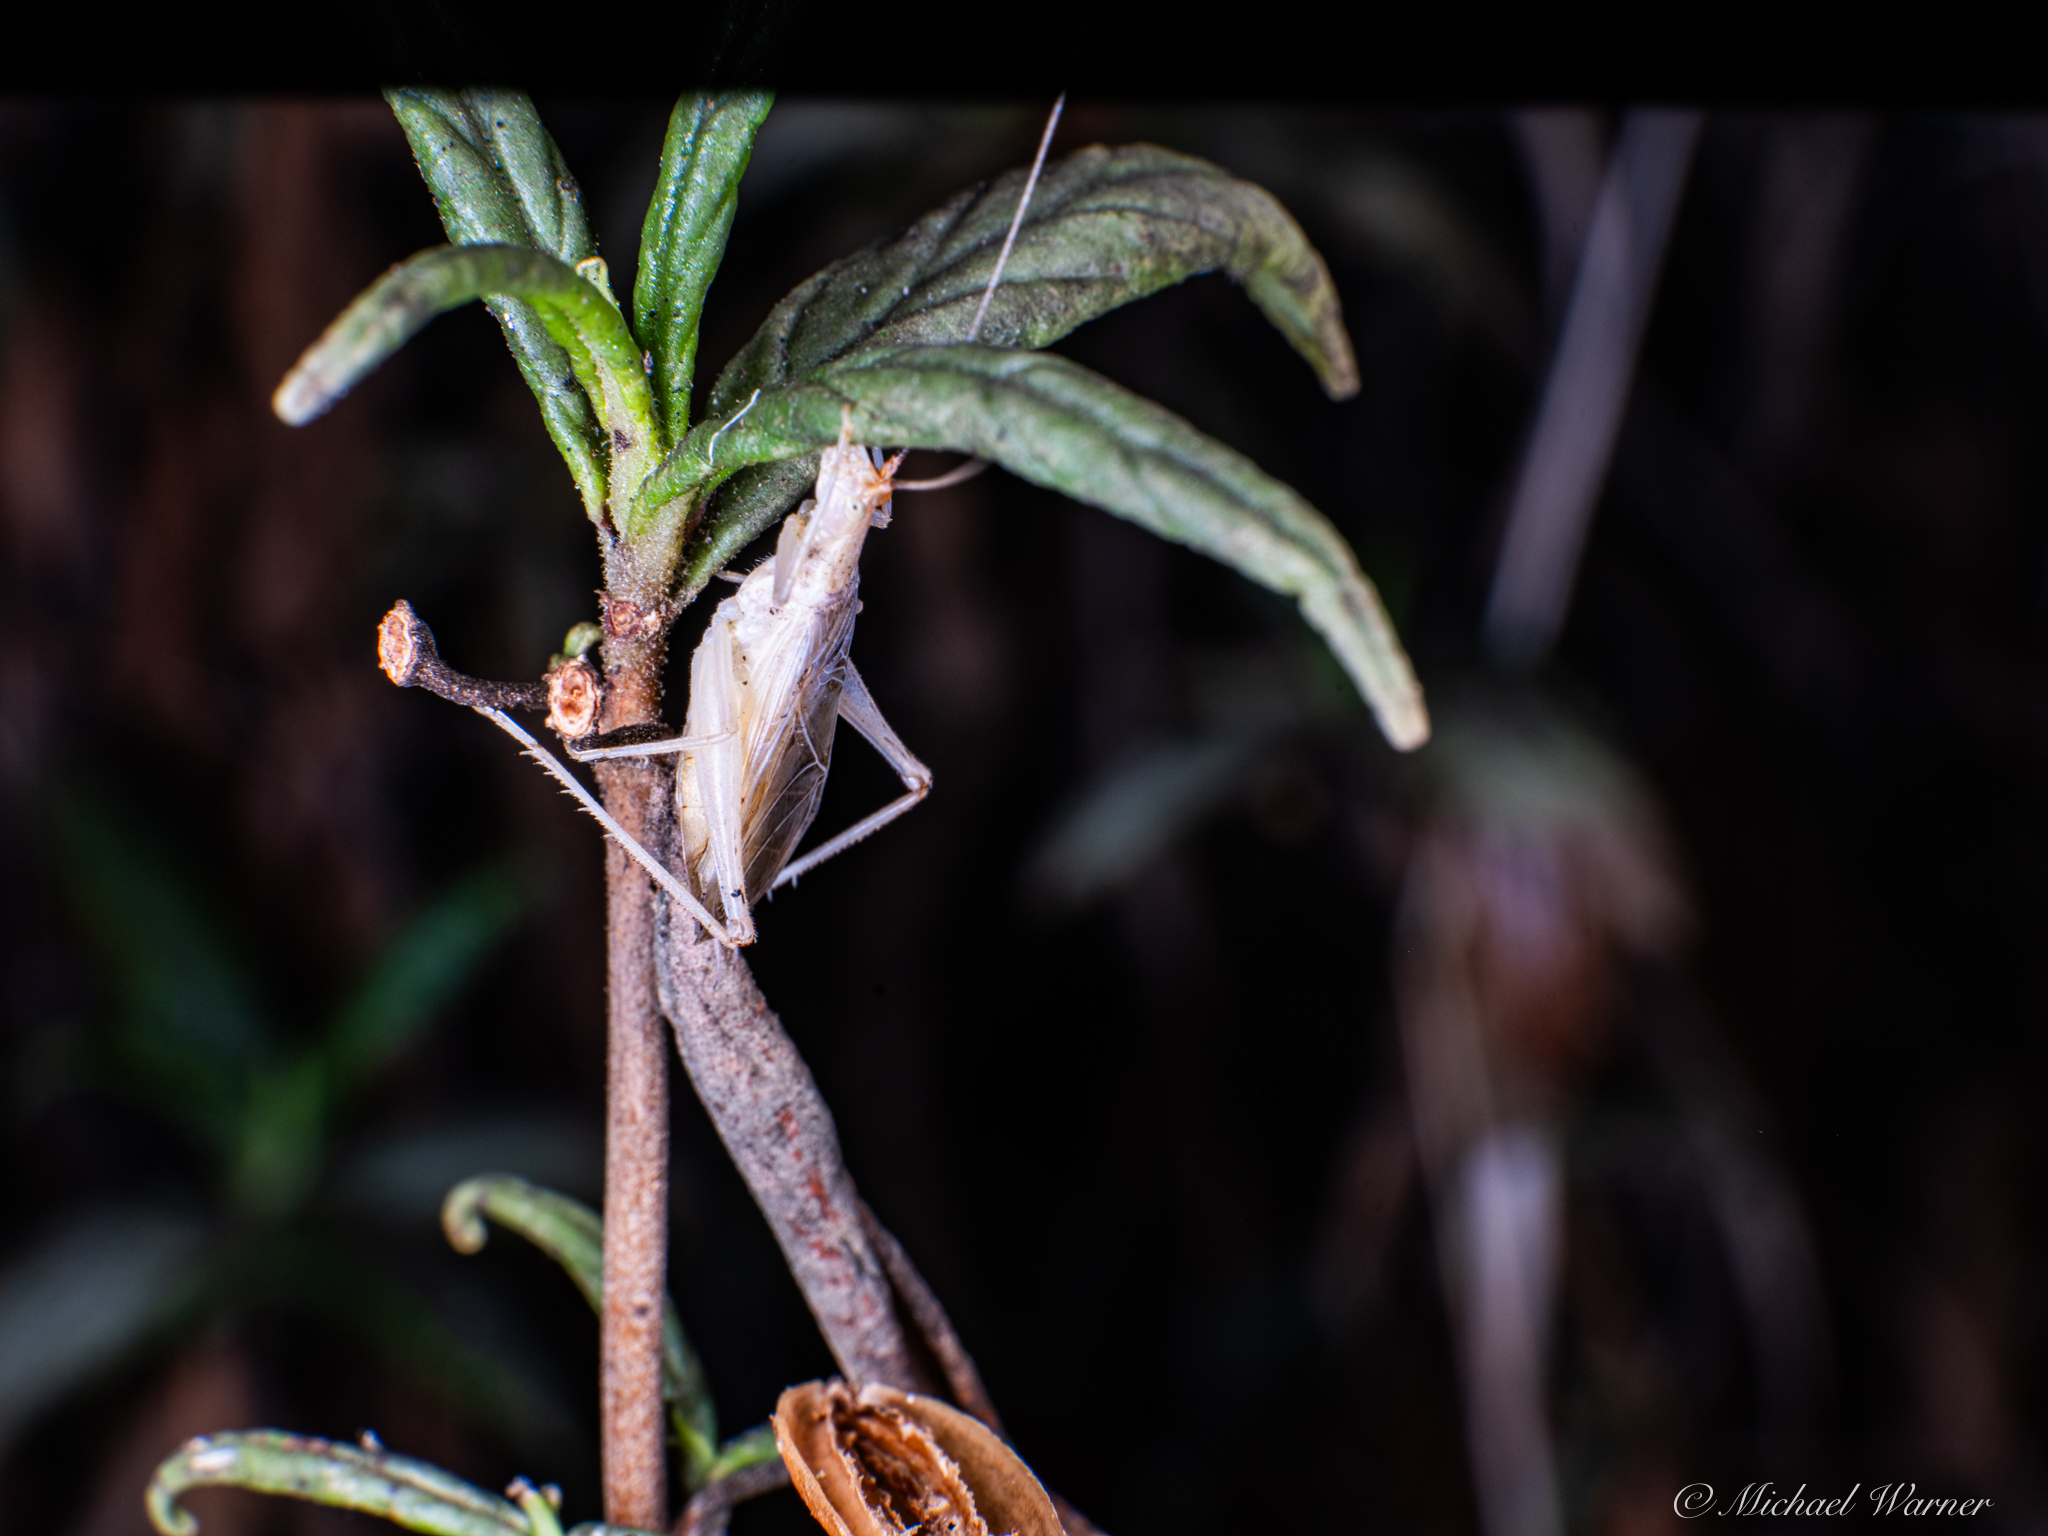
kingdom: Animalia
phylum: Arthropoda
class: Insecta
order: Orthoptera
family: Gryllidae
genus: Oecanthus
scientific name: Oecanthus californicus
